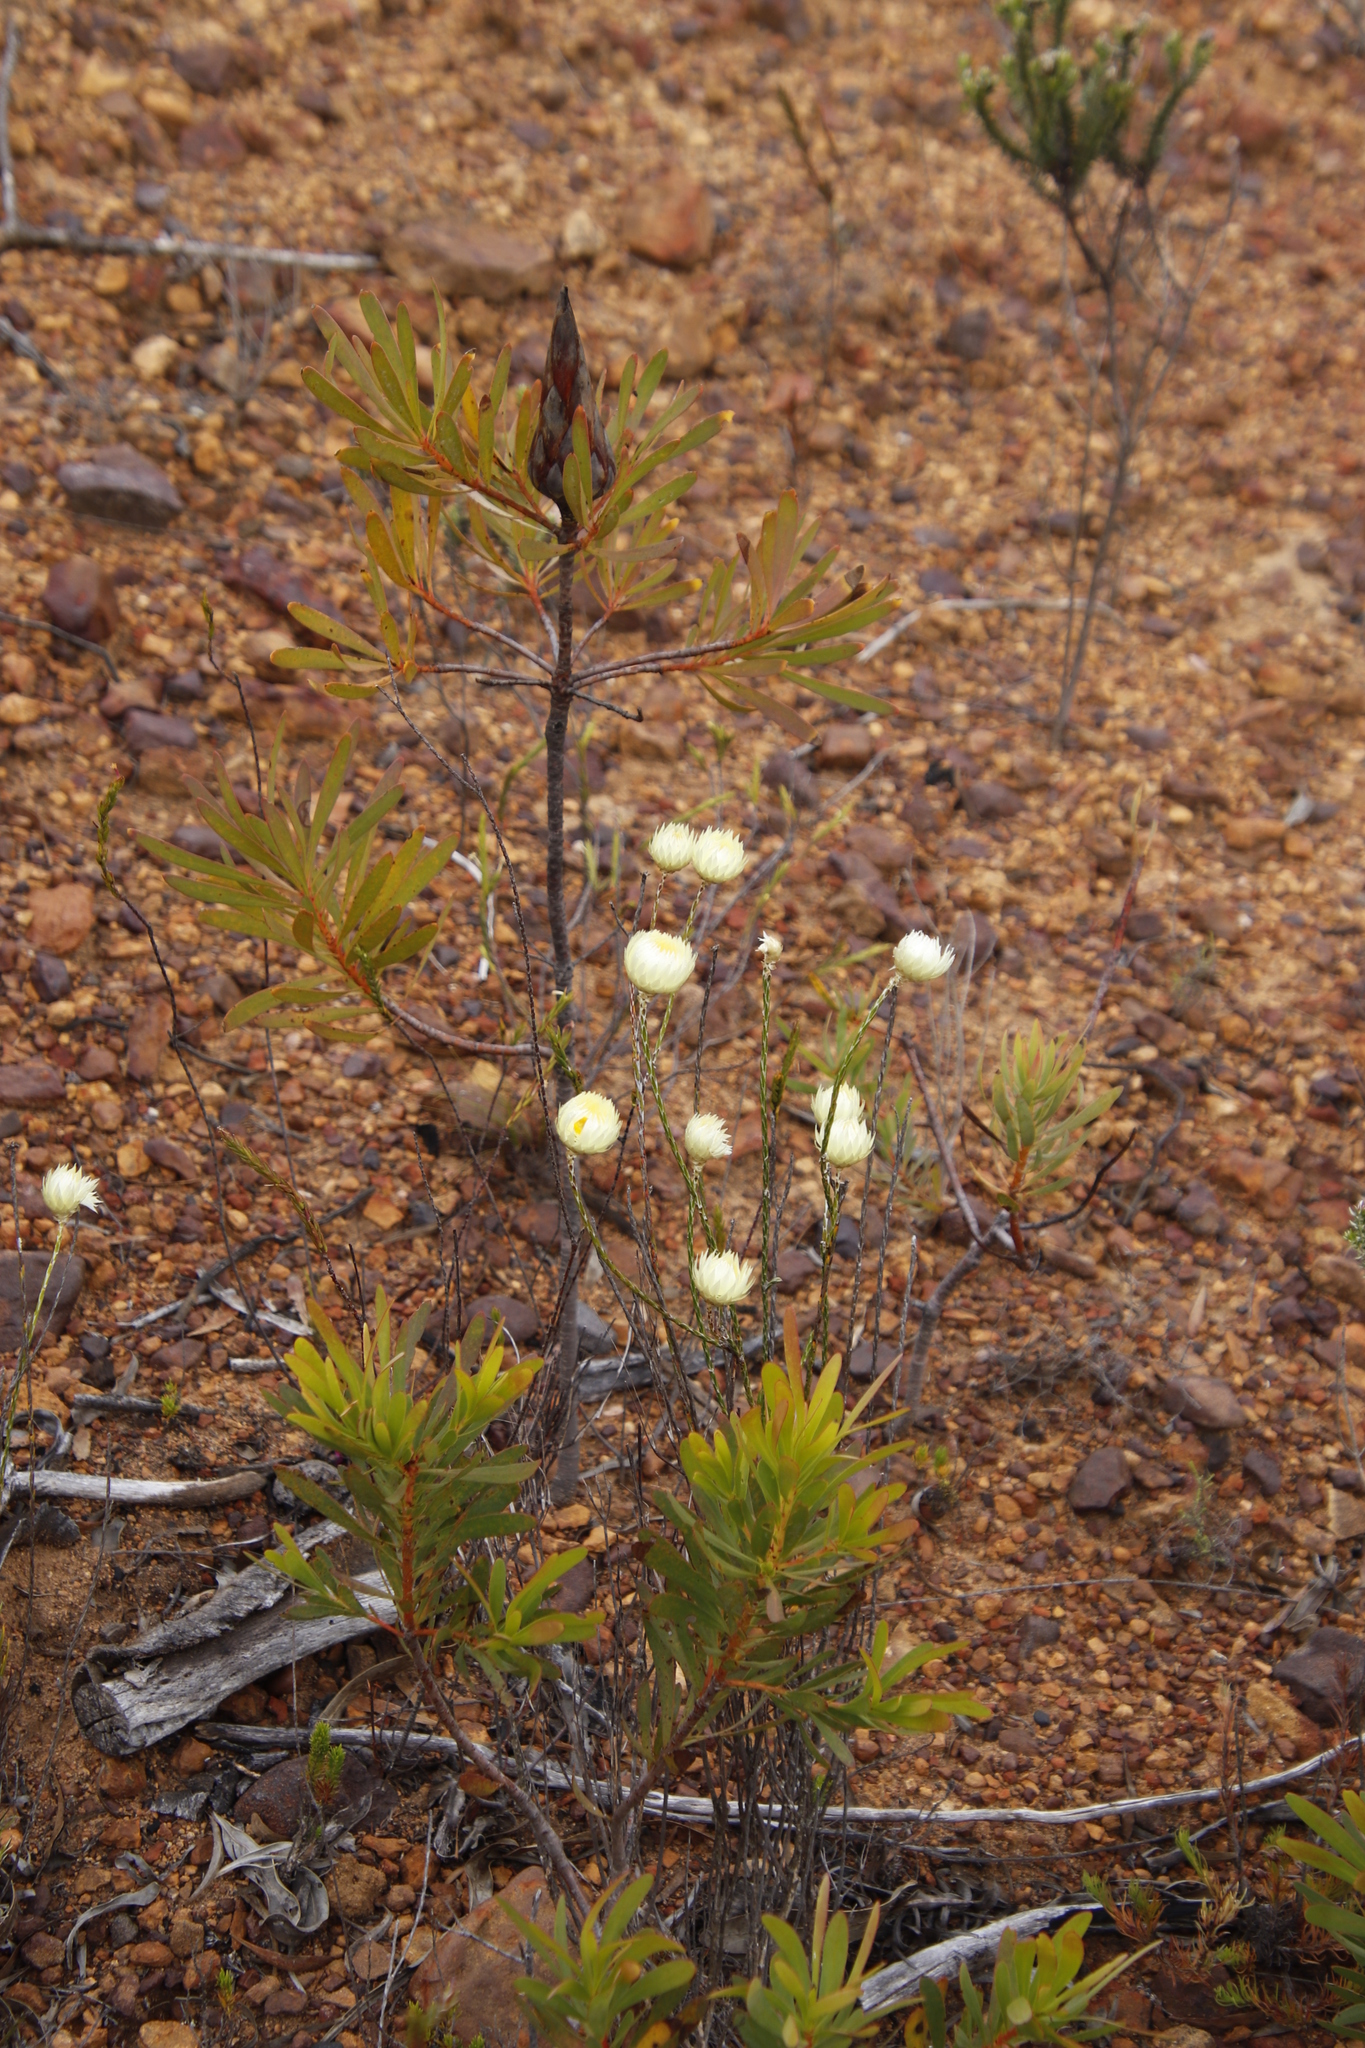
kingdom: Plantae
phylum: Tracheophyta
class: Magnoliopsida
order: Proteales
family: Proteaceae
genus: Protea
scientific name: Protea repens
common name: Sugarbush
